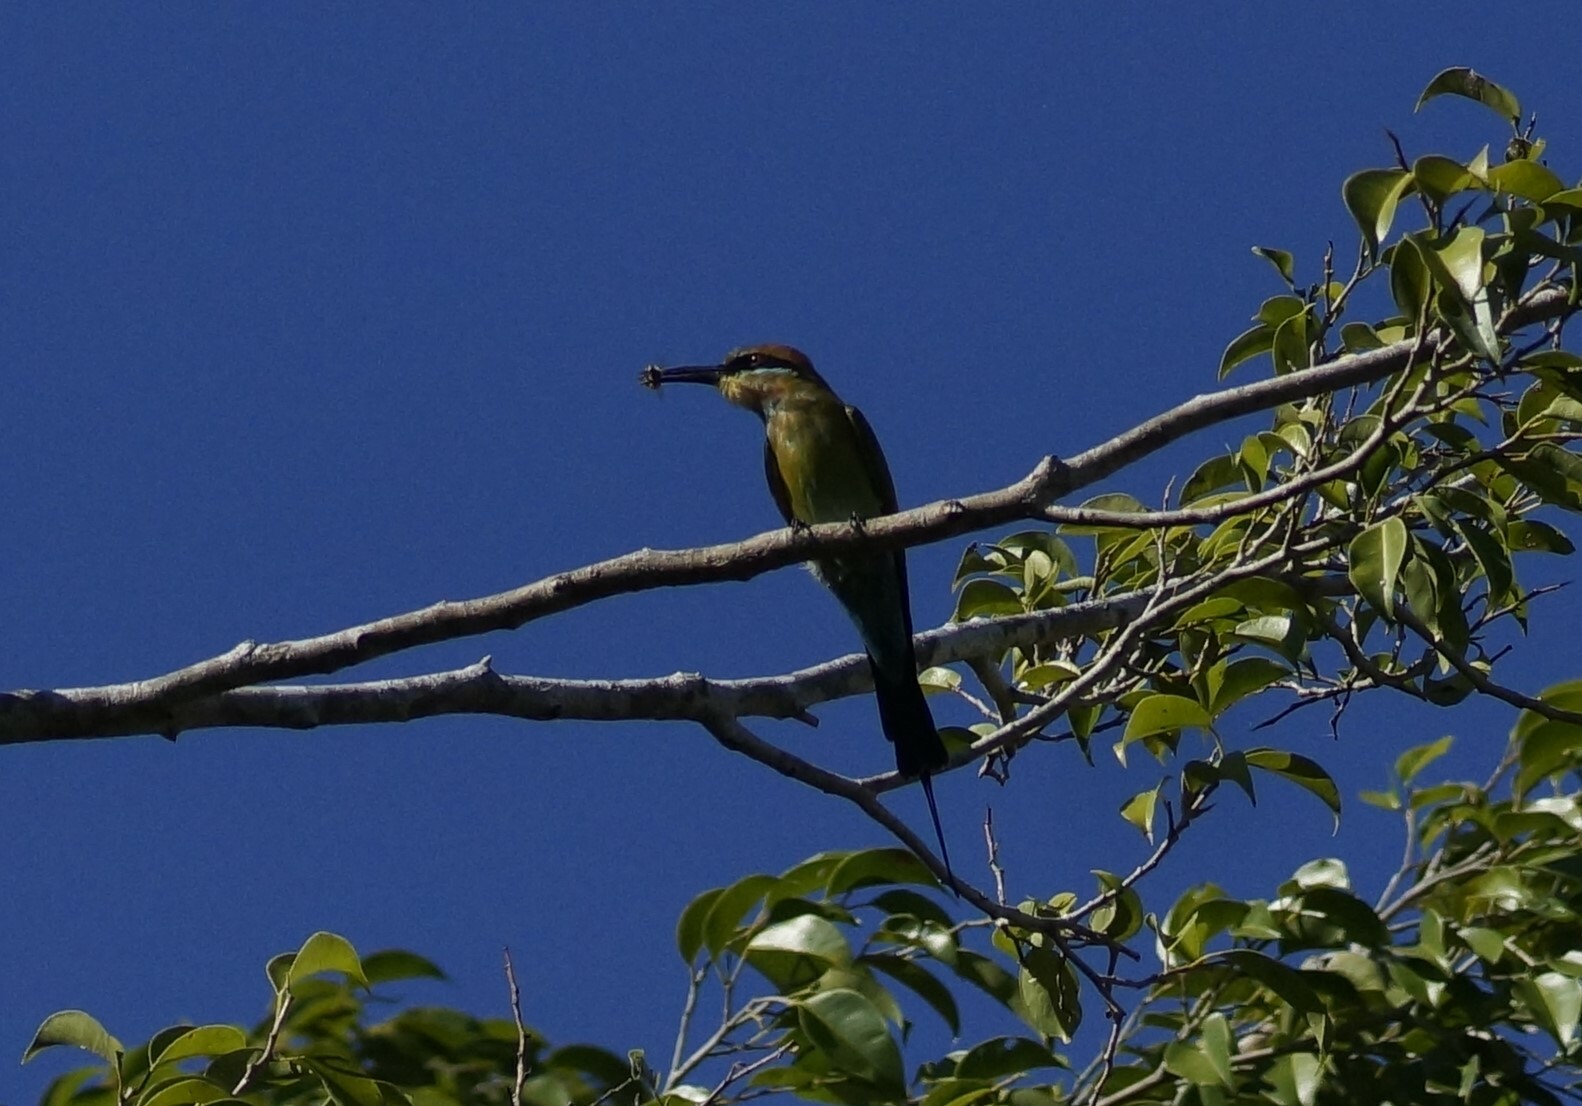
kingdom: Animalia
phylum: Chordata
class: Aves
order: Coraciiformes
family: Meropidae
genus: Merops
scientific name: Merops ornatus
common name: Rainbow bee-eater
